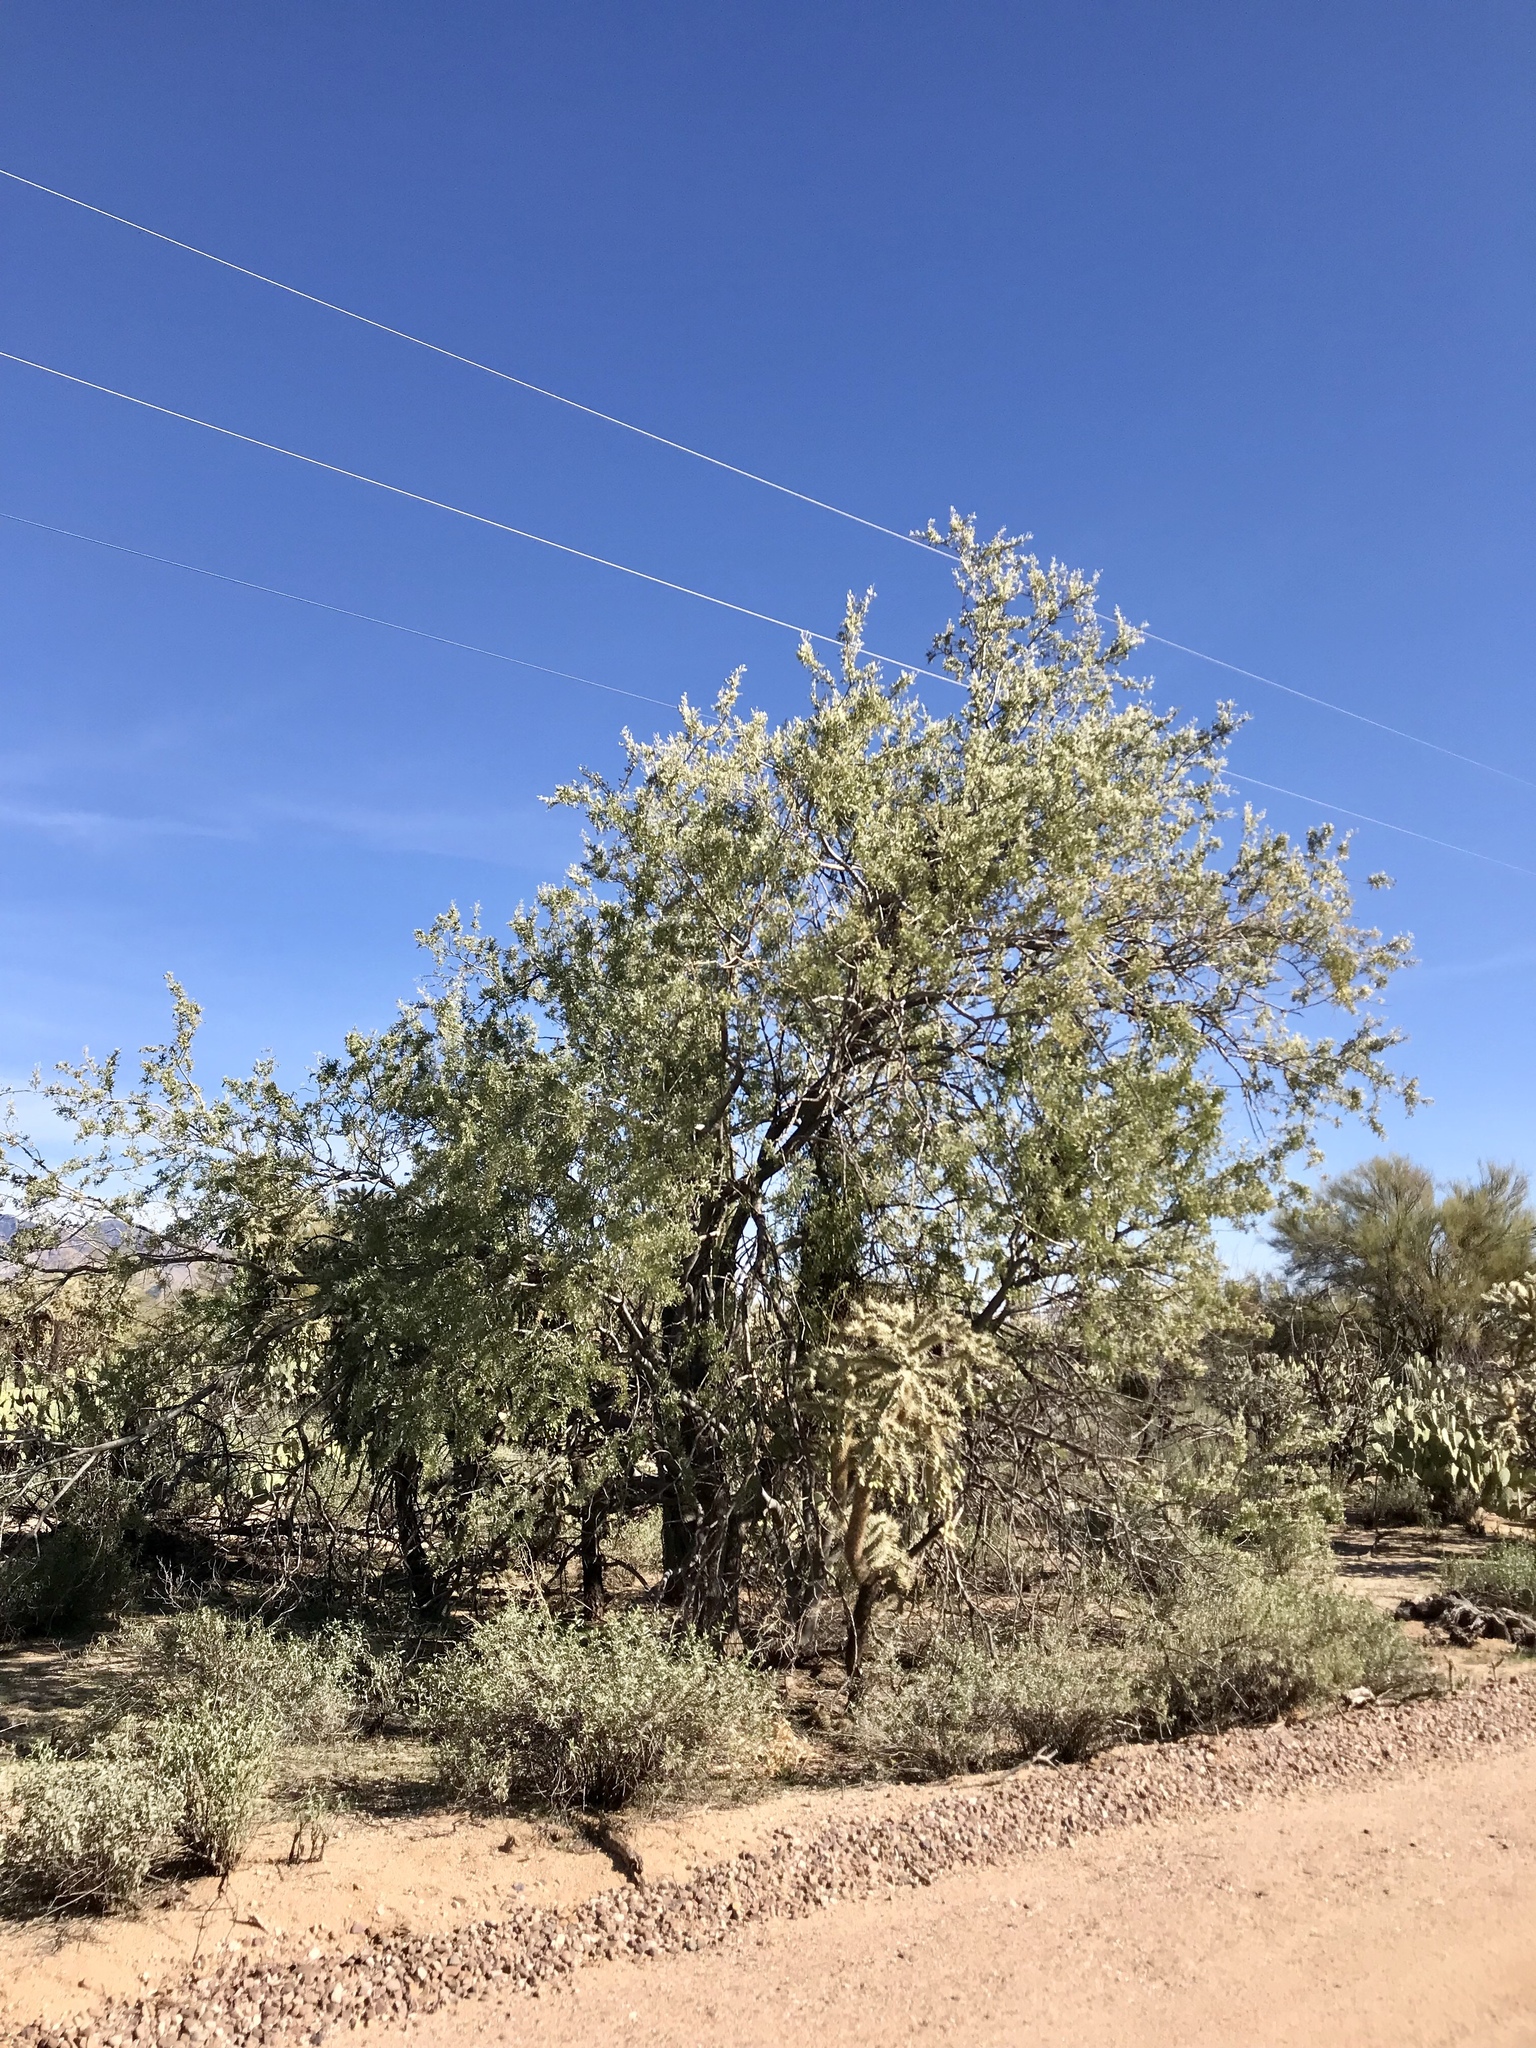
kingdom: Plantae
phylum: Tracheophyta
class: Magnoliopsida
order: Fabales
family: Fabaceae
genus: Olneya
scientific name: Olneya tesota
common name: Desert ironwood
